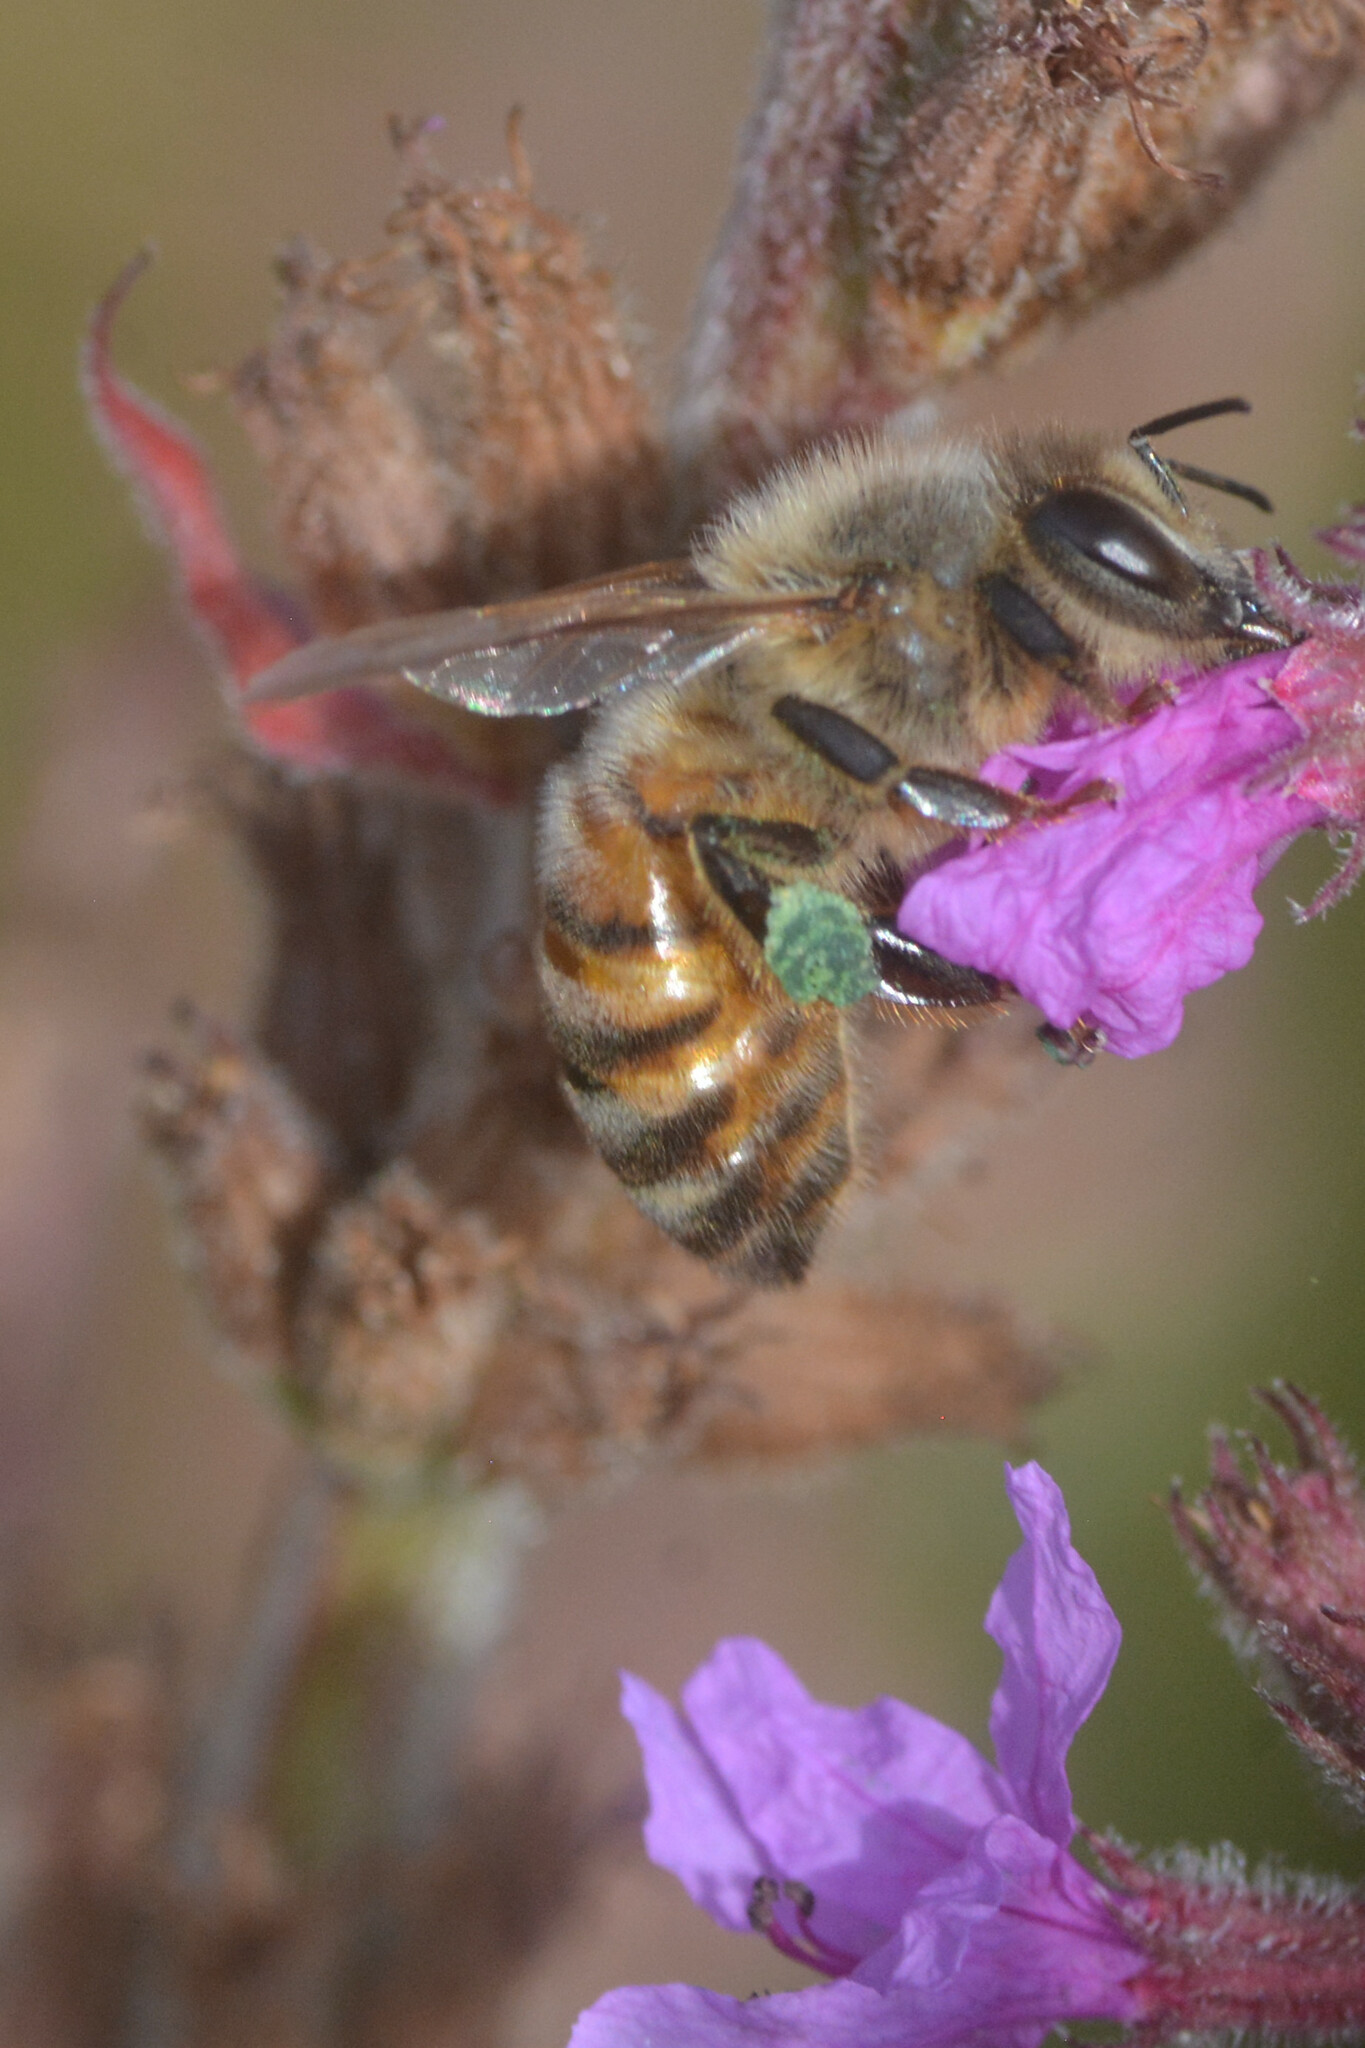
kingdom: Animalia
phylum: Arthropoda
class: Insecta
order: Hymenoptera
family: Apidae
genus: Apis
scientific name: Apis mellifera
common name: Honey bee
